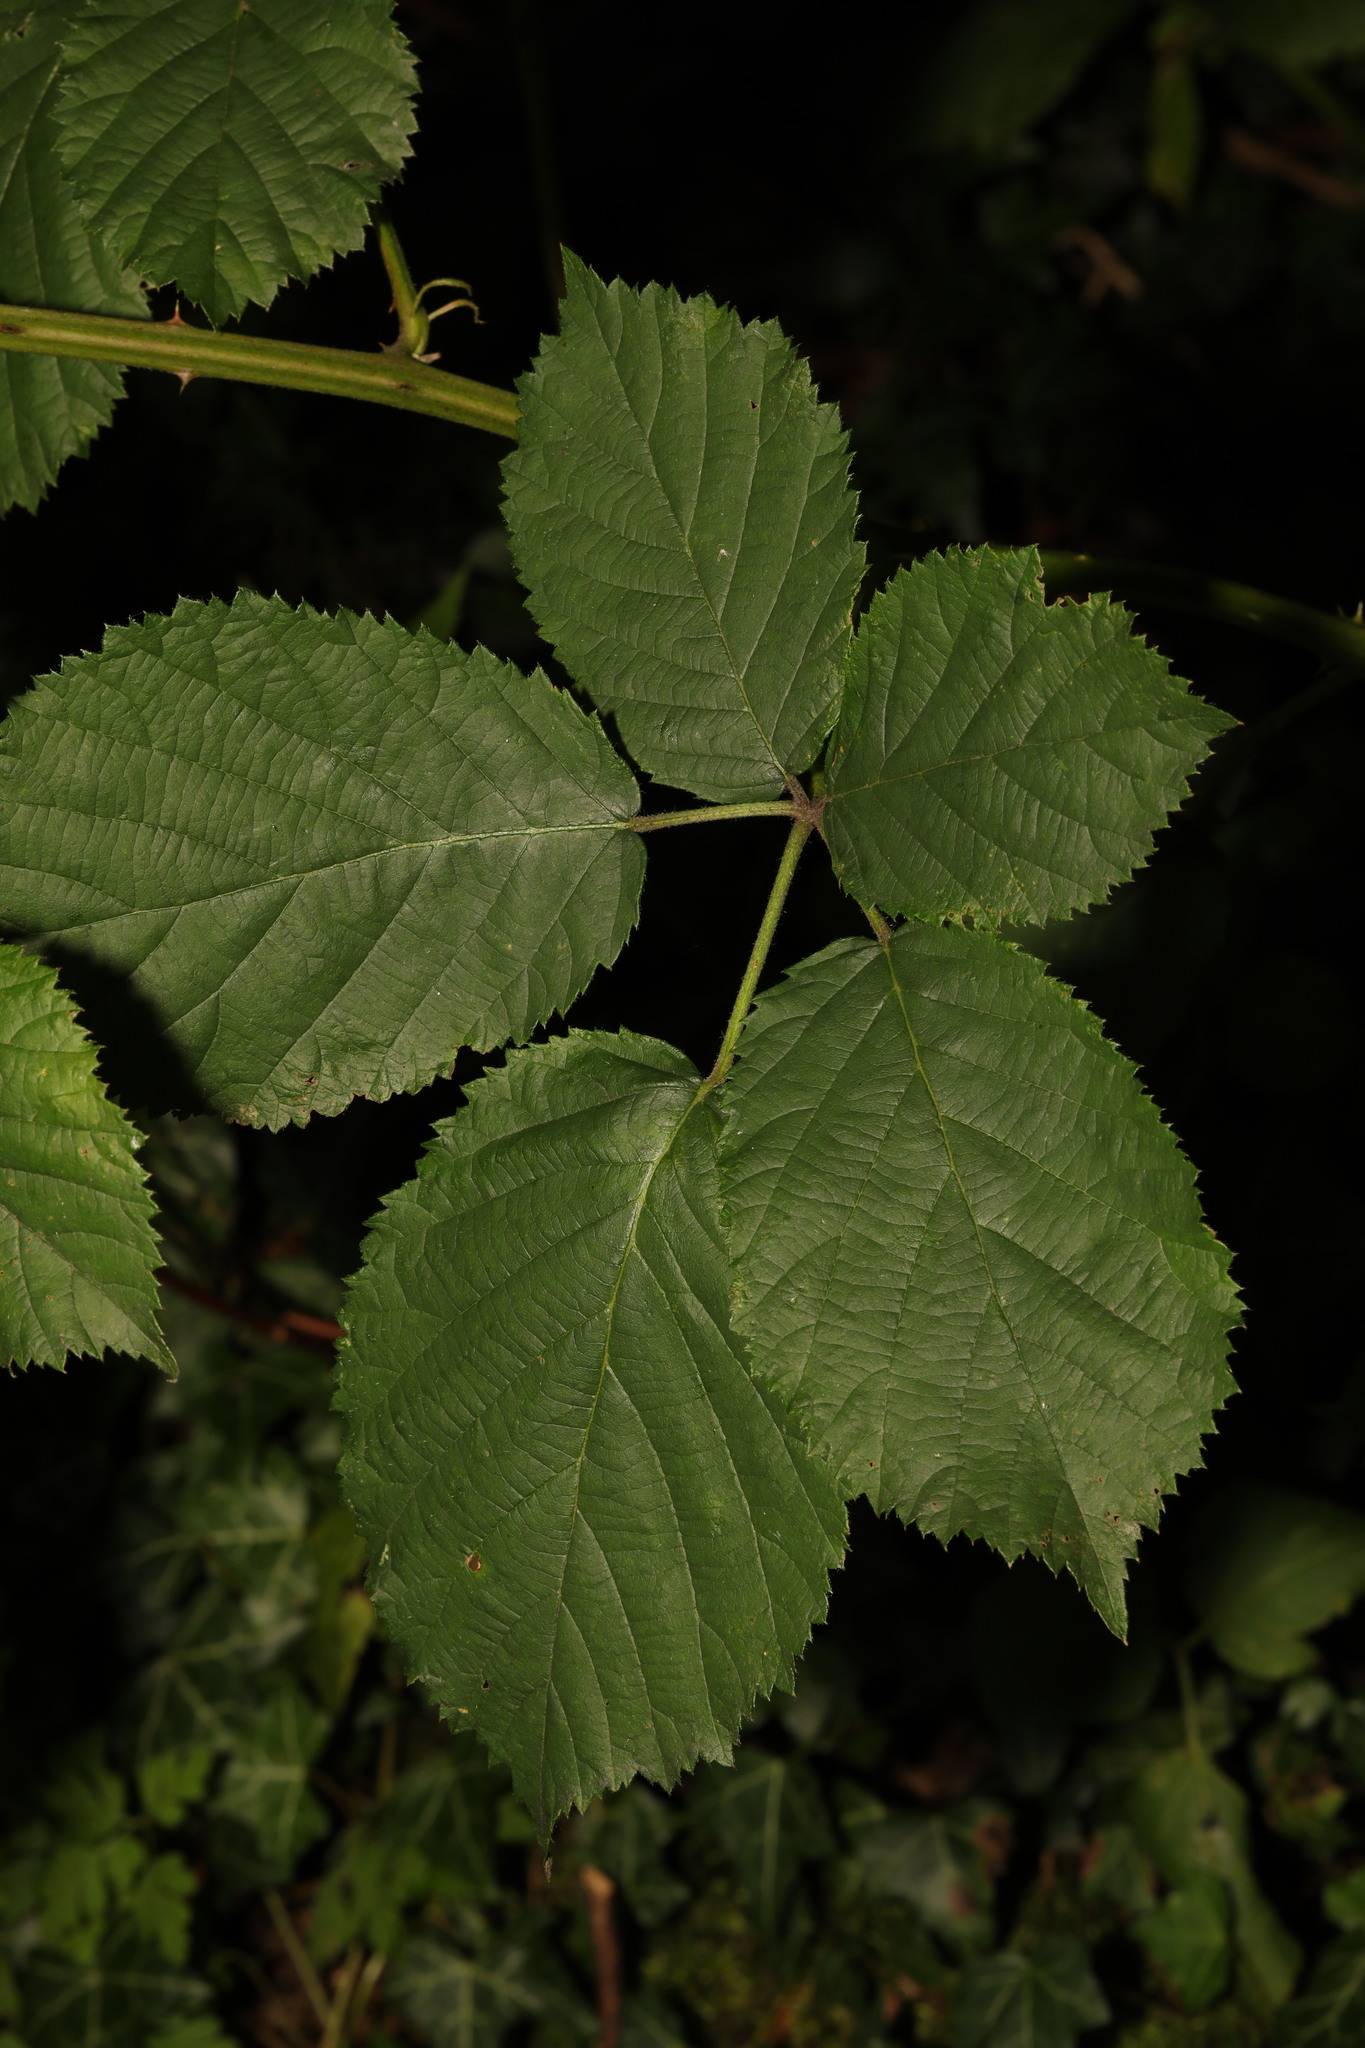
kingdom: Plantae
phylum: Tracheophyta
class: Magnoliopsida
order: Rosales
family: Rosaceae
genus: Rubus
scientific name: Rubus armeniacus
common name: Himalayan blackberry
